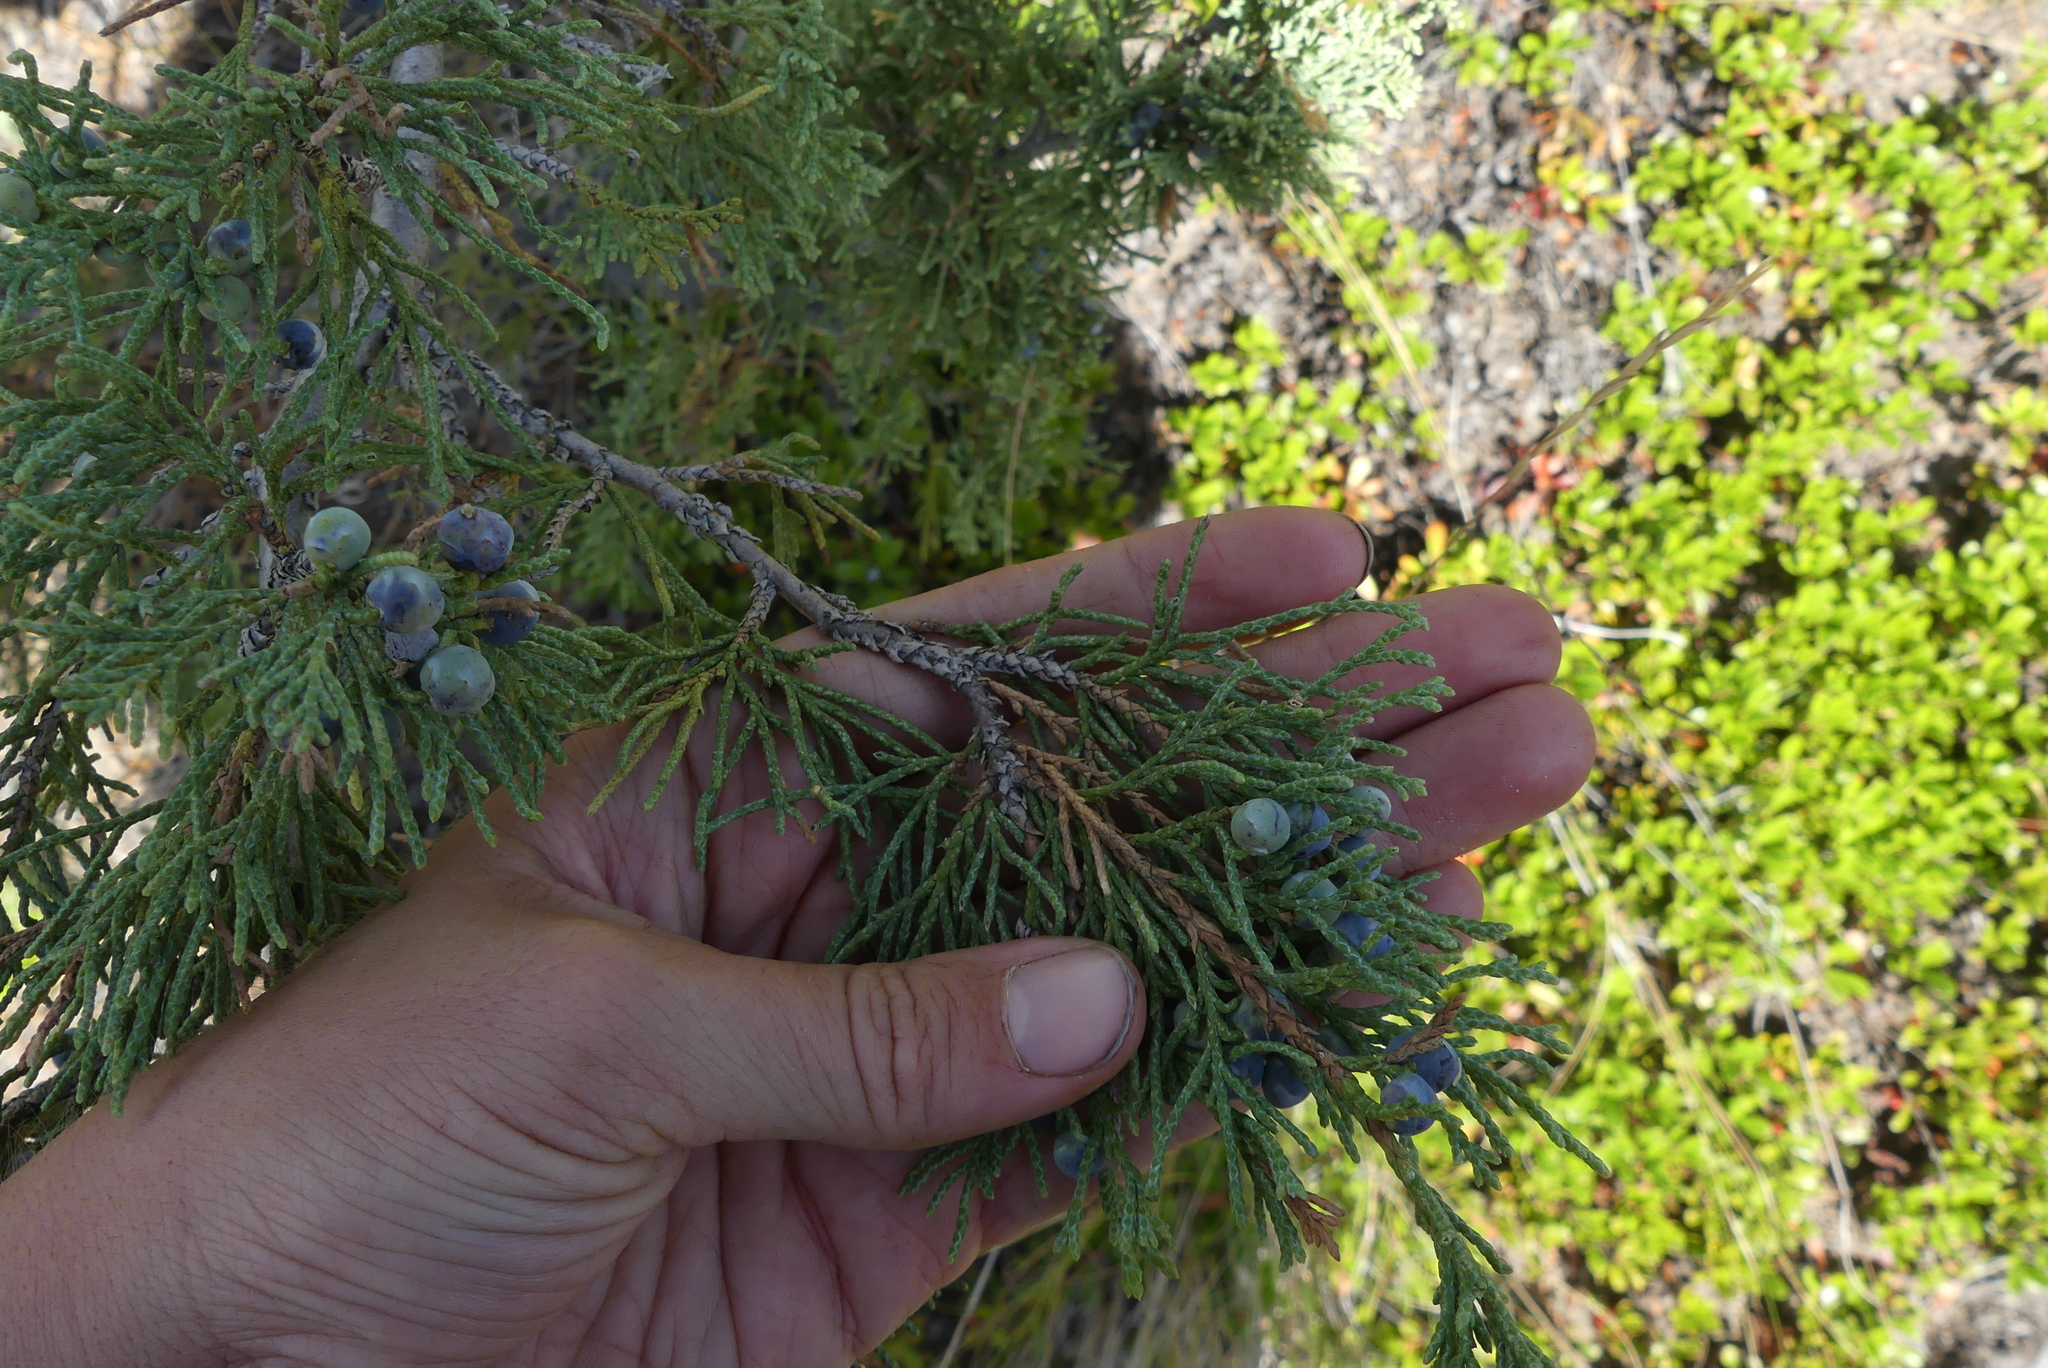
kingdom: Plantae
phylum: Tracheophyta
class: Pinopsida
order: Pinales
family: Cupressaceae
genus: Juniperus
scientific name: Juniperus scopulorum
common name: Rocky mountain juniper
